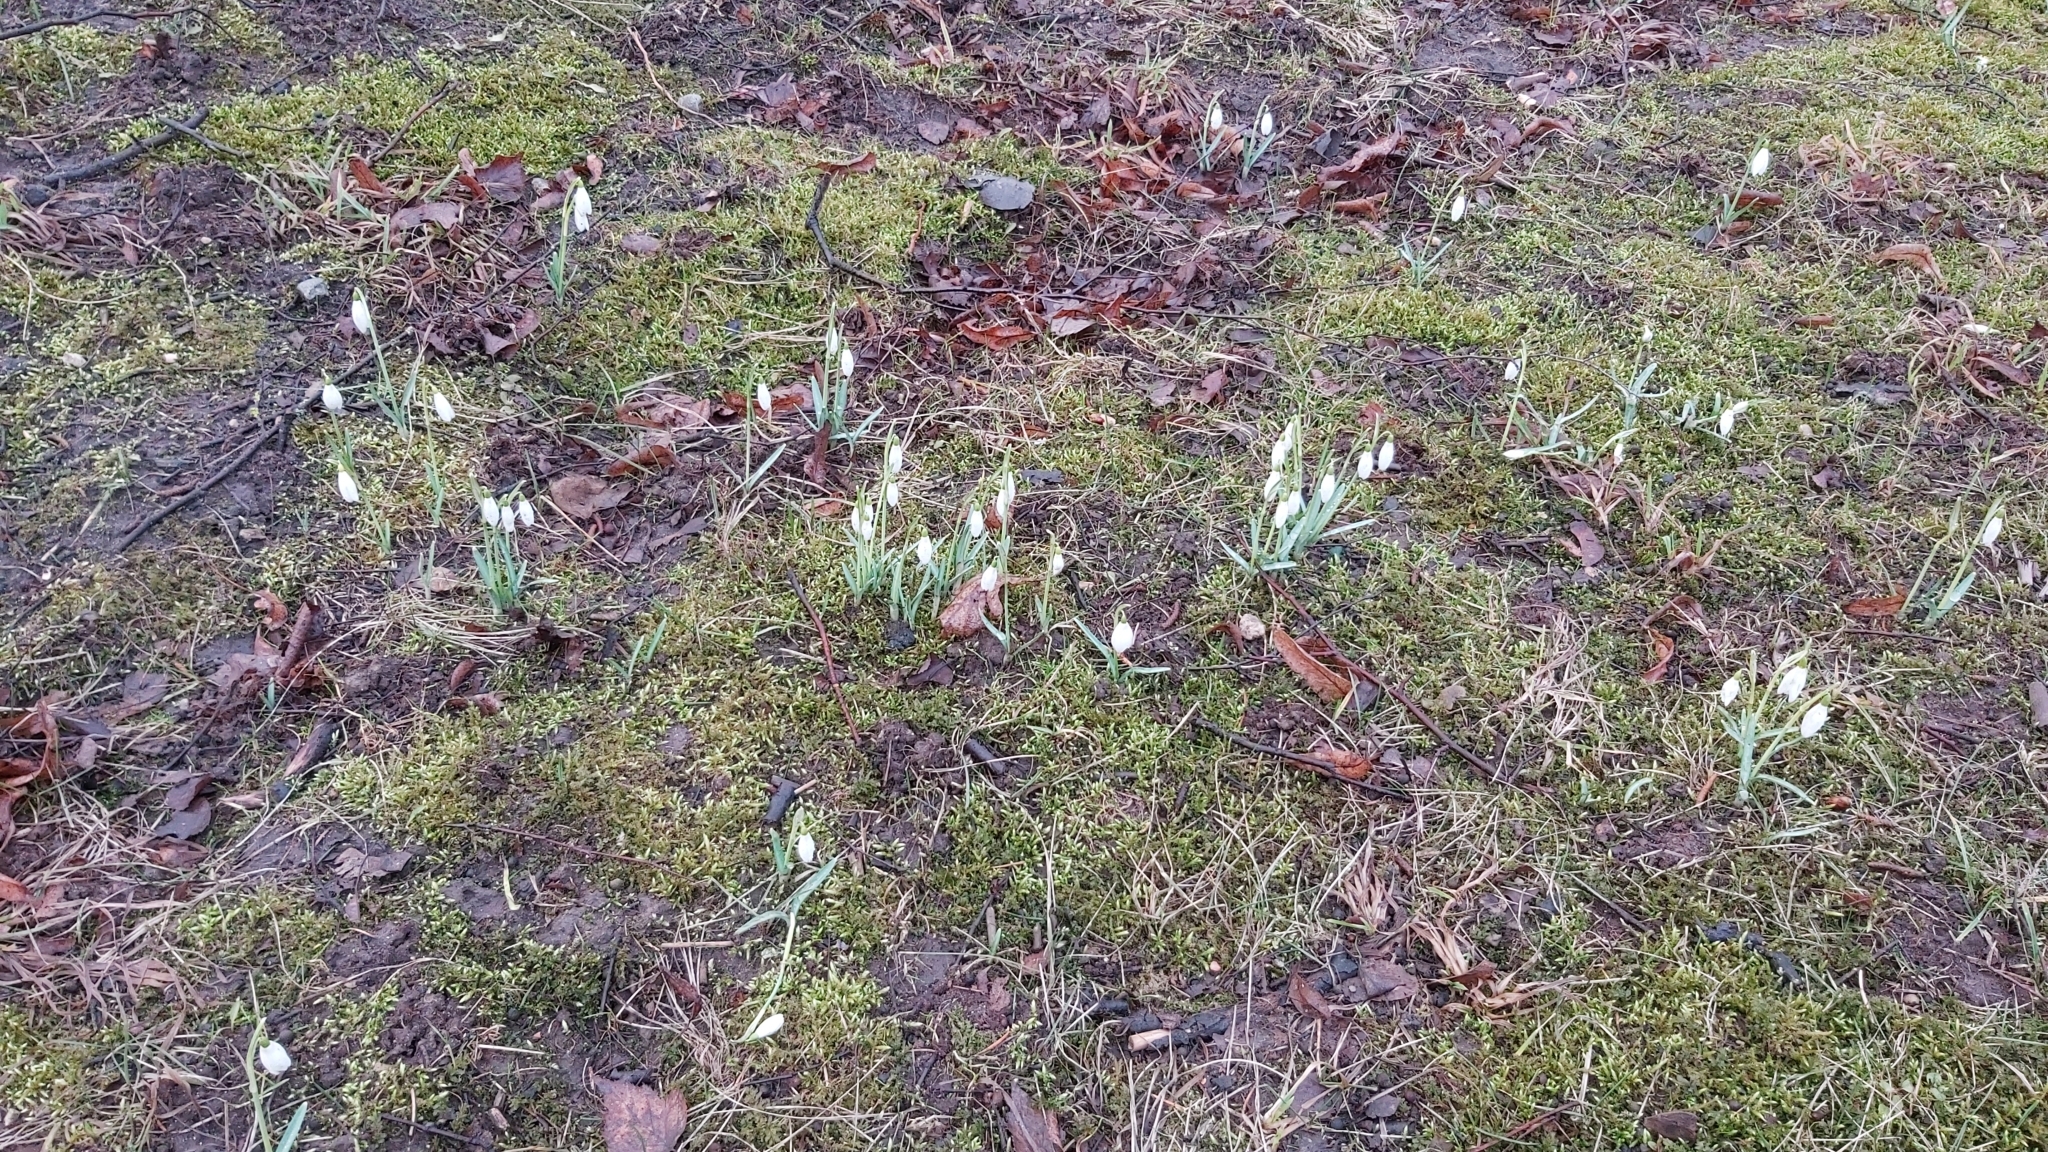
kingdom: Plantae
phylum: Tracheophyta
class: Liliopsida
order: Asparagales
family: Amaryllidaceae
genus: Galanthus
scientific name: Galanthus nivalis
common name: Snowdrop
